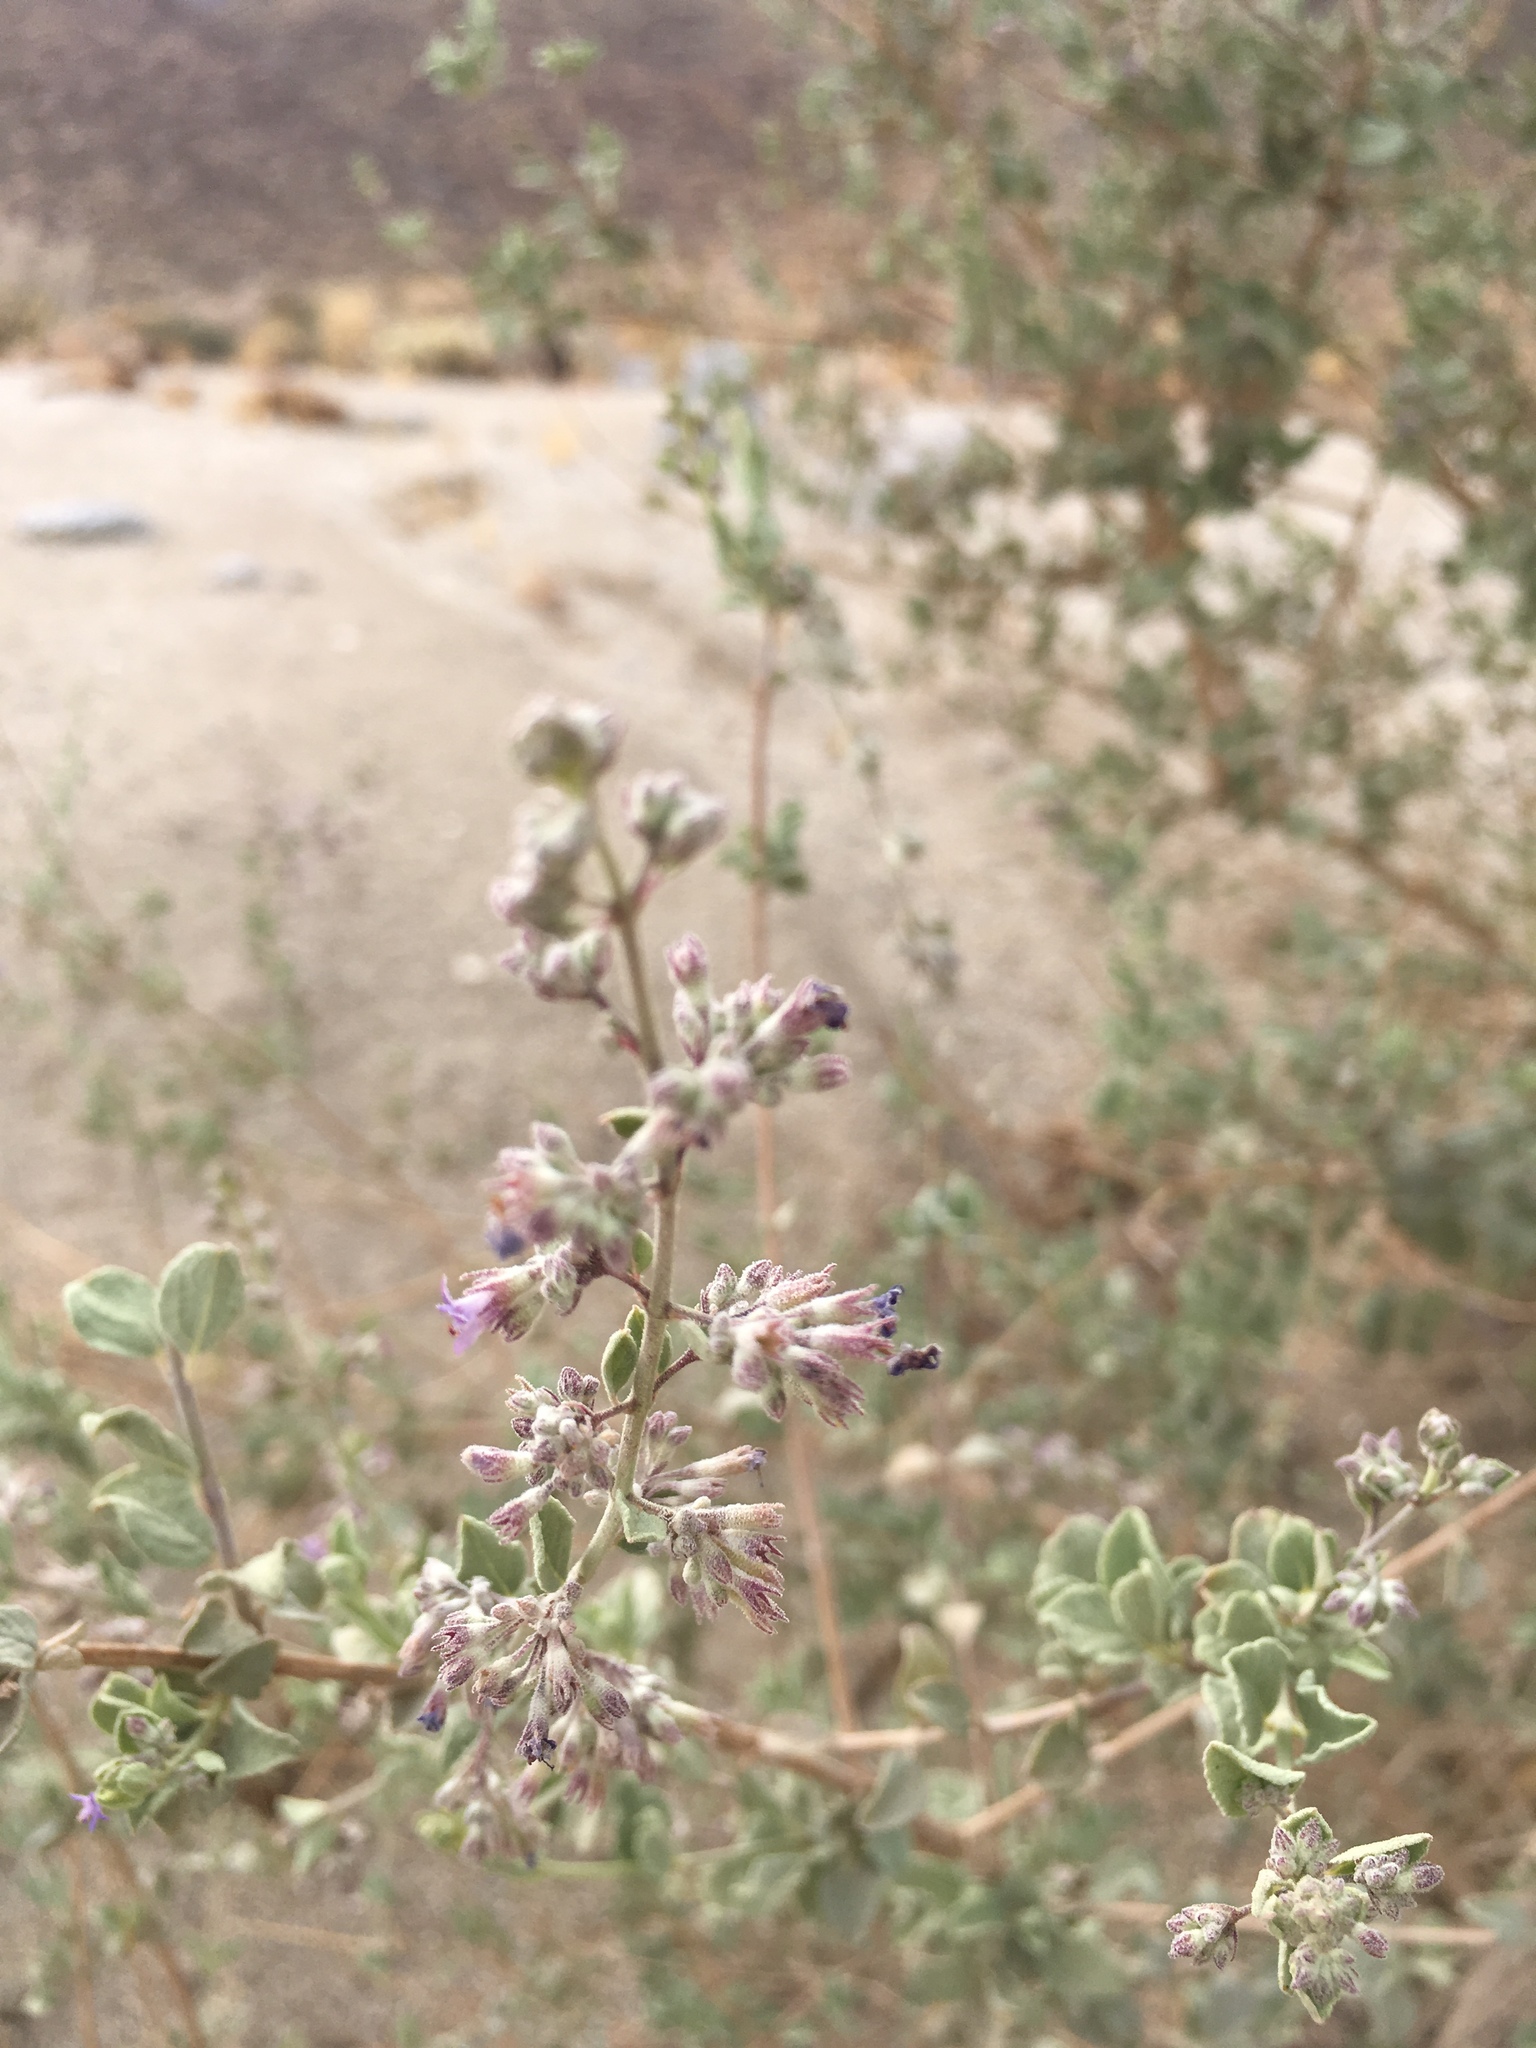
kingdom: Plantae
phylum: Tracheophyta
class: Magnoliopsida
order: Lamiales
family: Lamiaceae
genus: Condea
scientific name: Condea emoryi
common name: Chia
